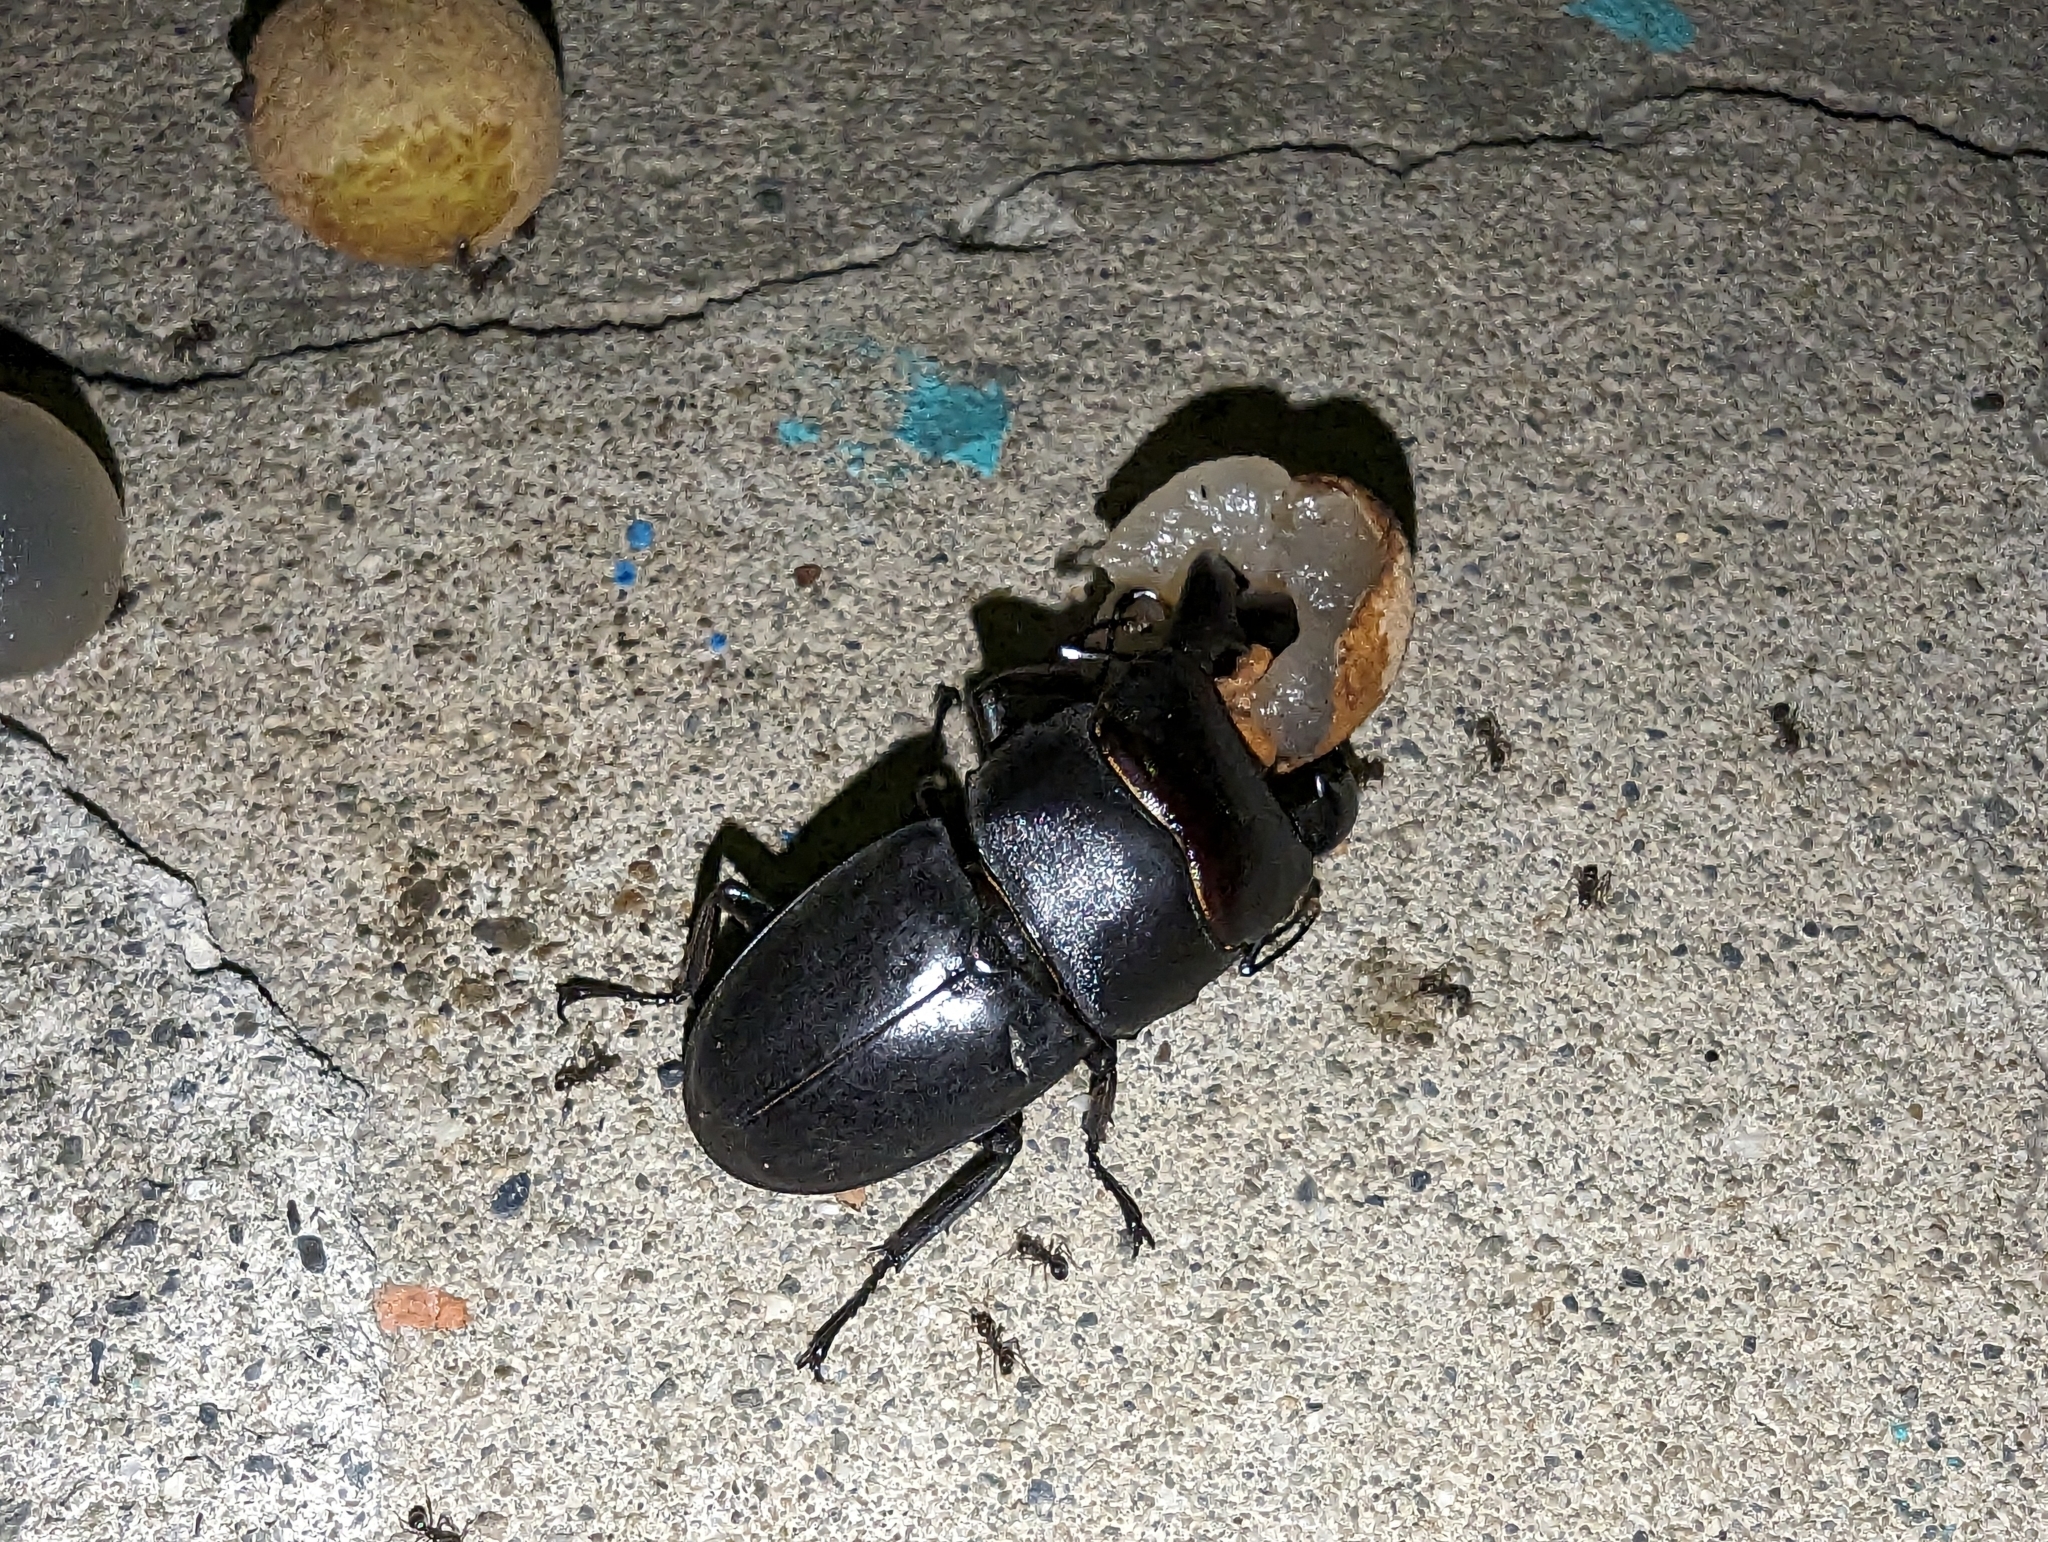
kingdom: Animalia
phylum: Arthropoda
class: Insecta
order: Coleoptera
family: Lucanidae
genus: Serrognathus
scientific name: Serrognathus titanus
